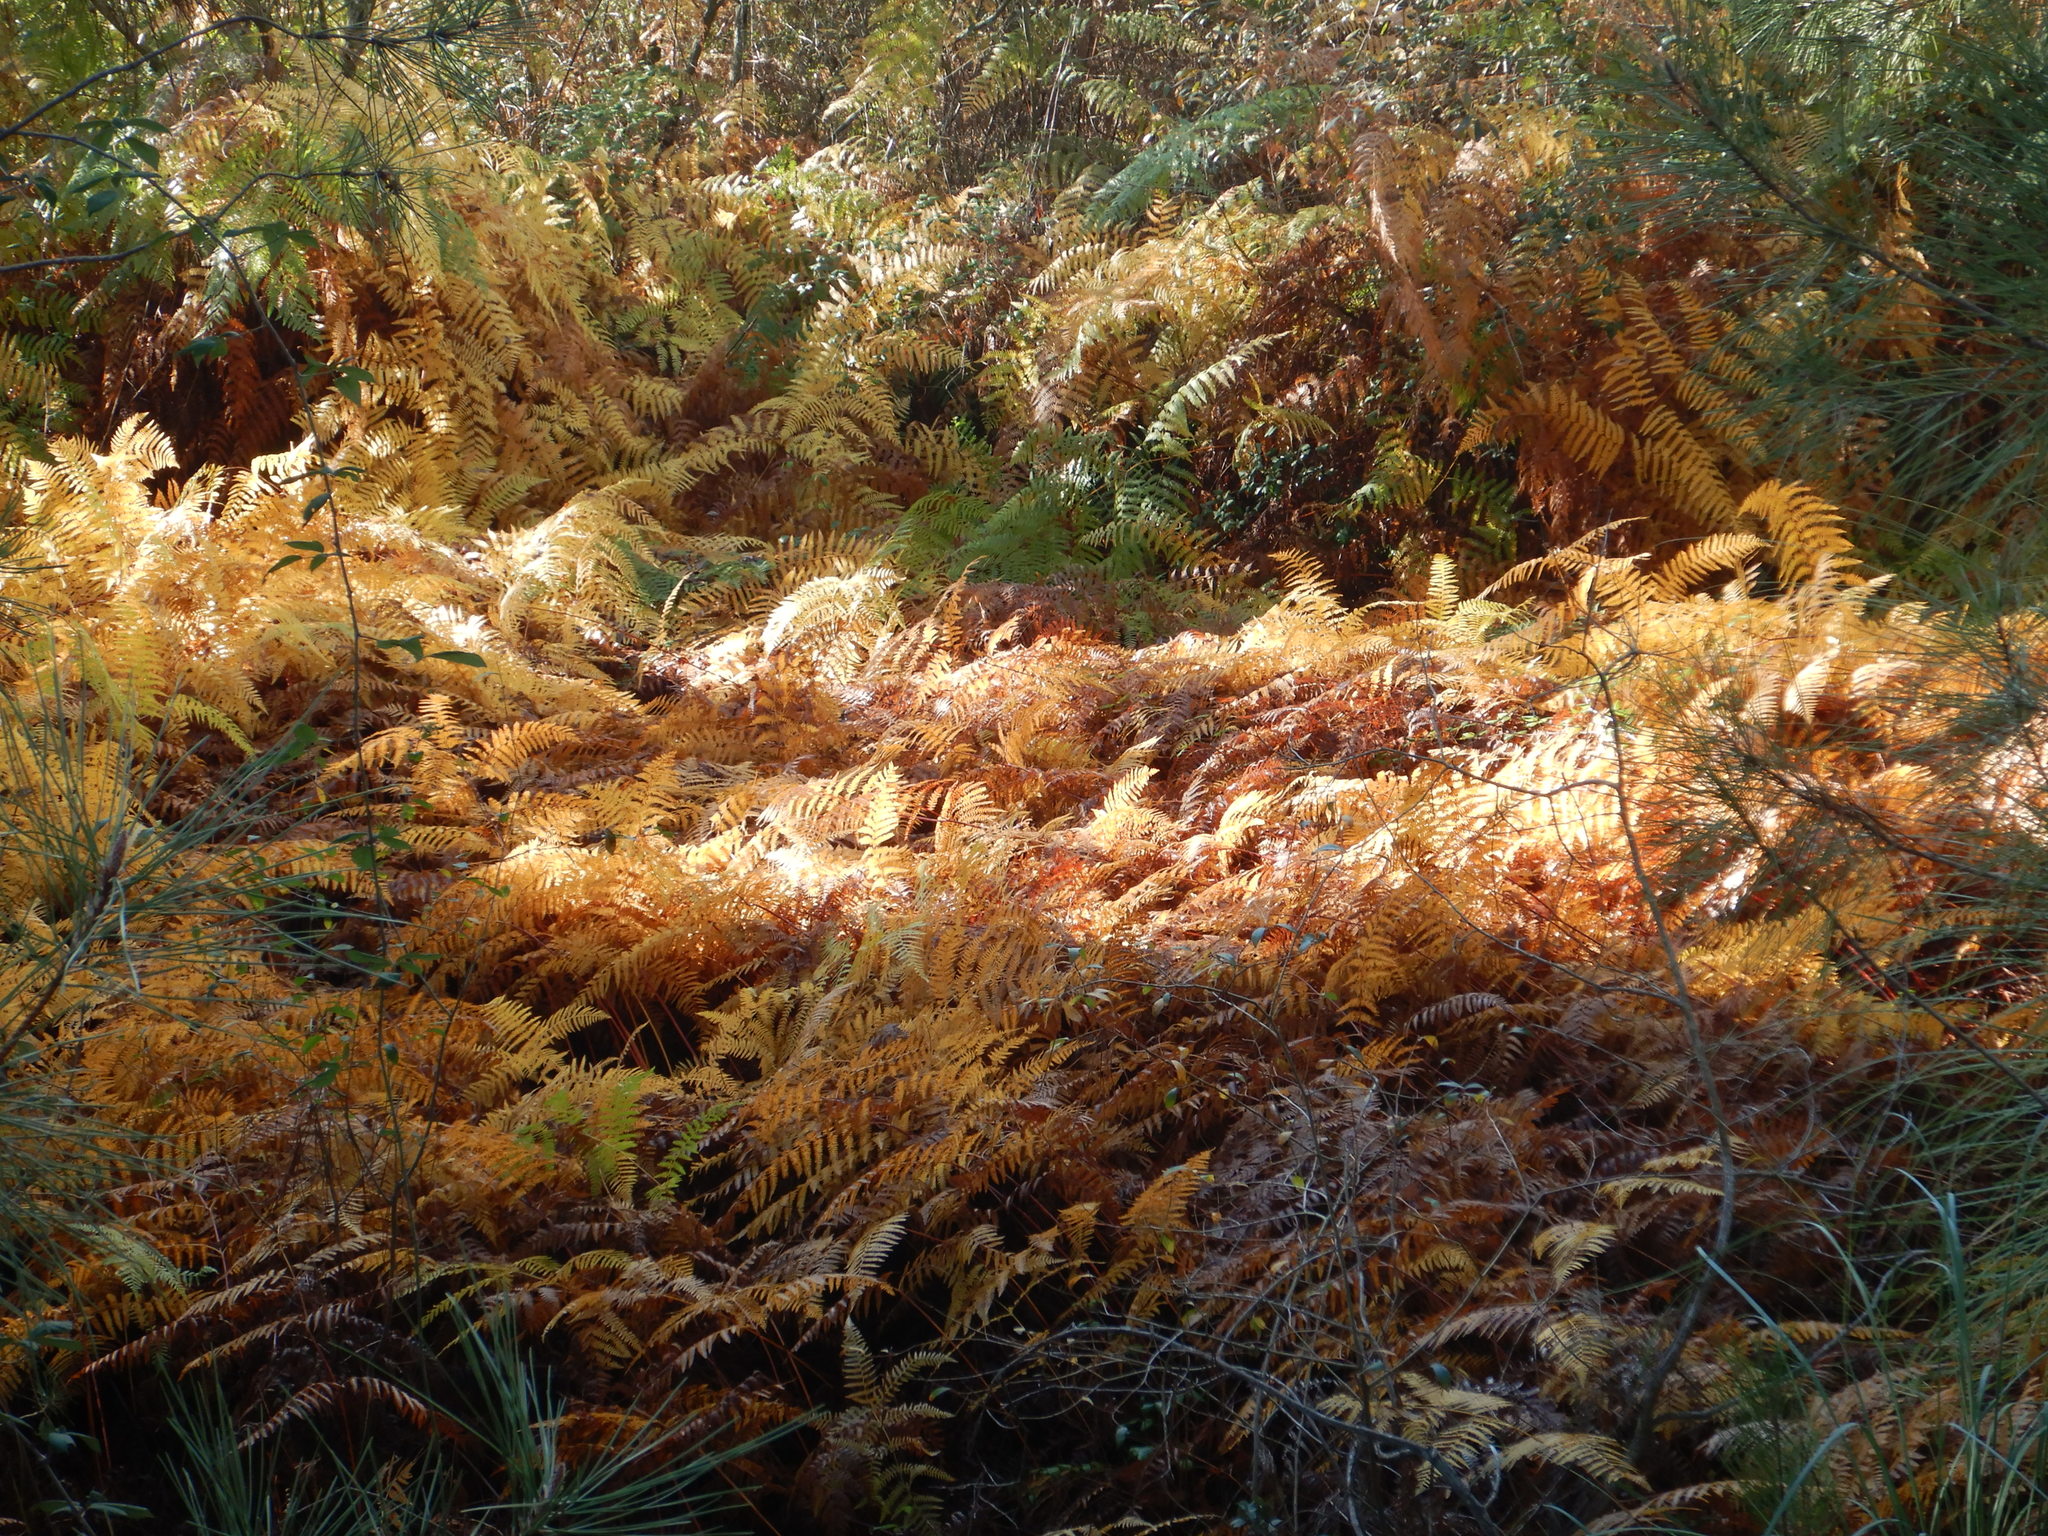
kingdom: Plantae
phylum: Tracheophyta
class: Polypodiopsida
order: Polypodiales
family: Dennstaedtiaceae
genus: Pteridium
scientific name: Pteridium aquilinum
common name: Bracken
